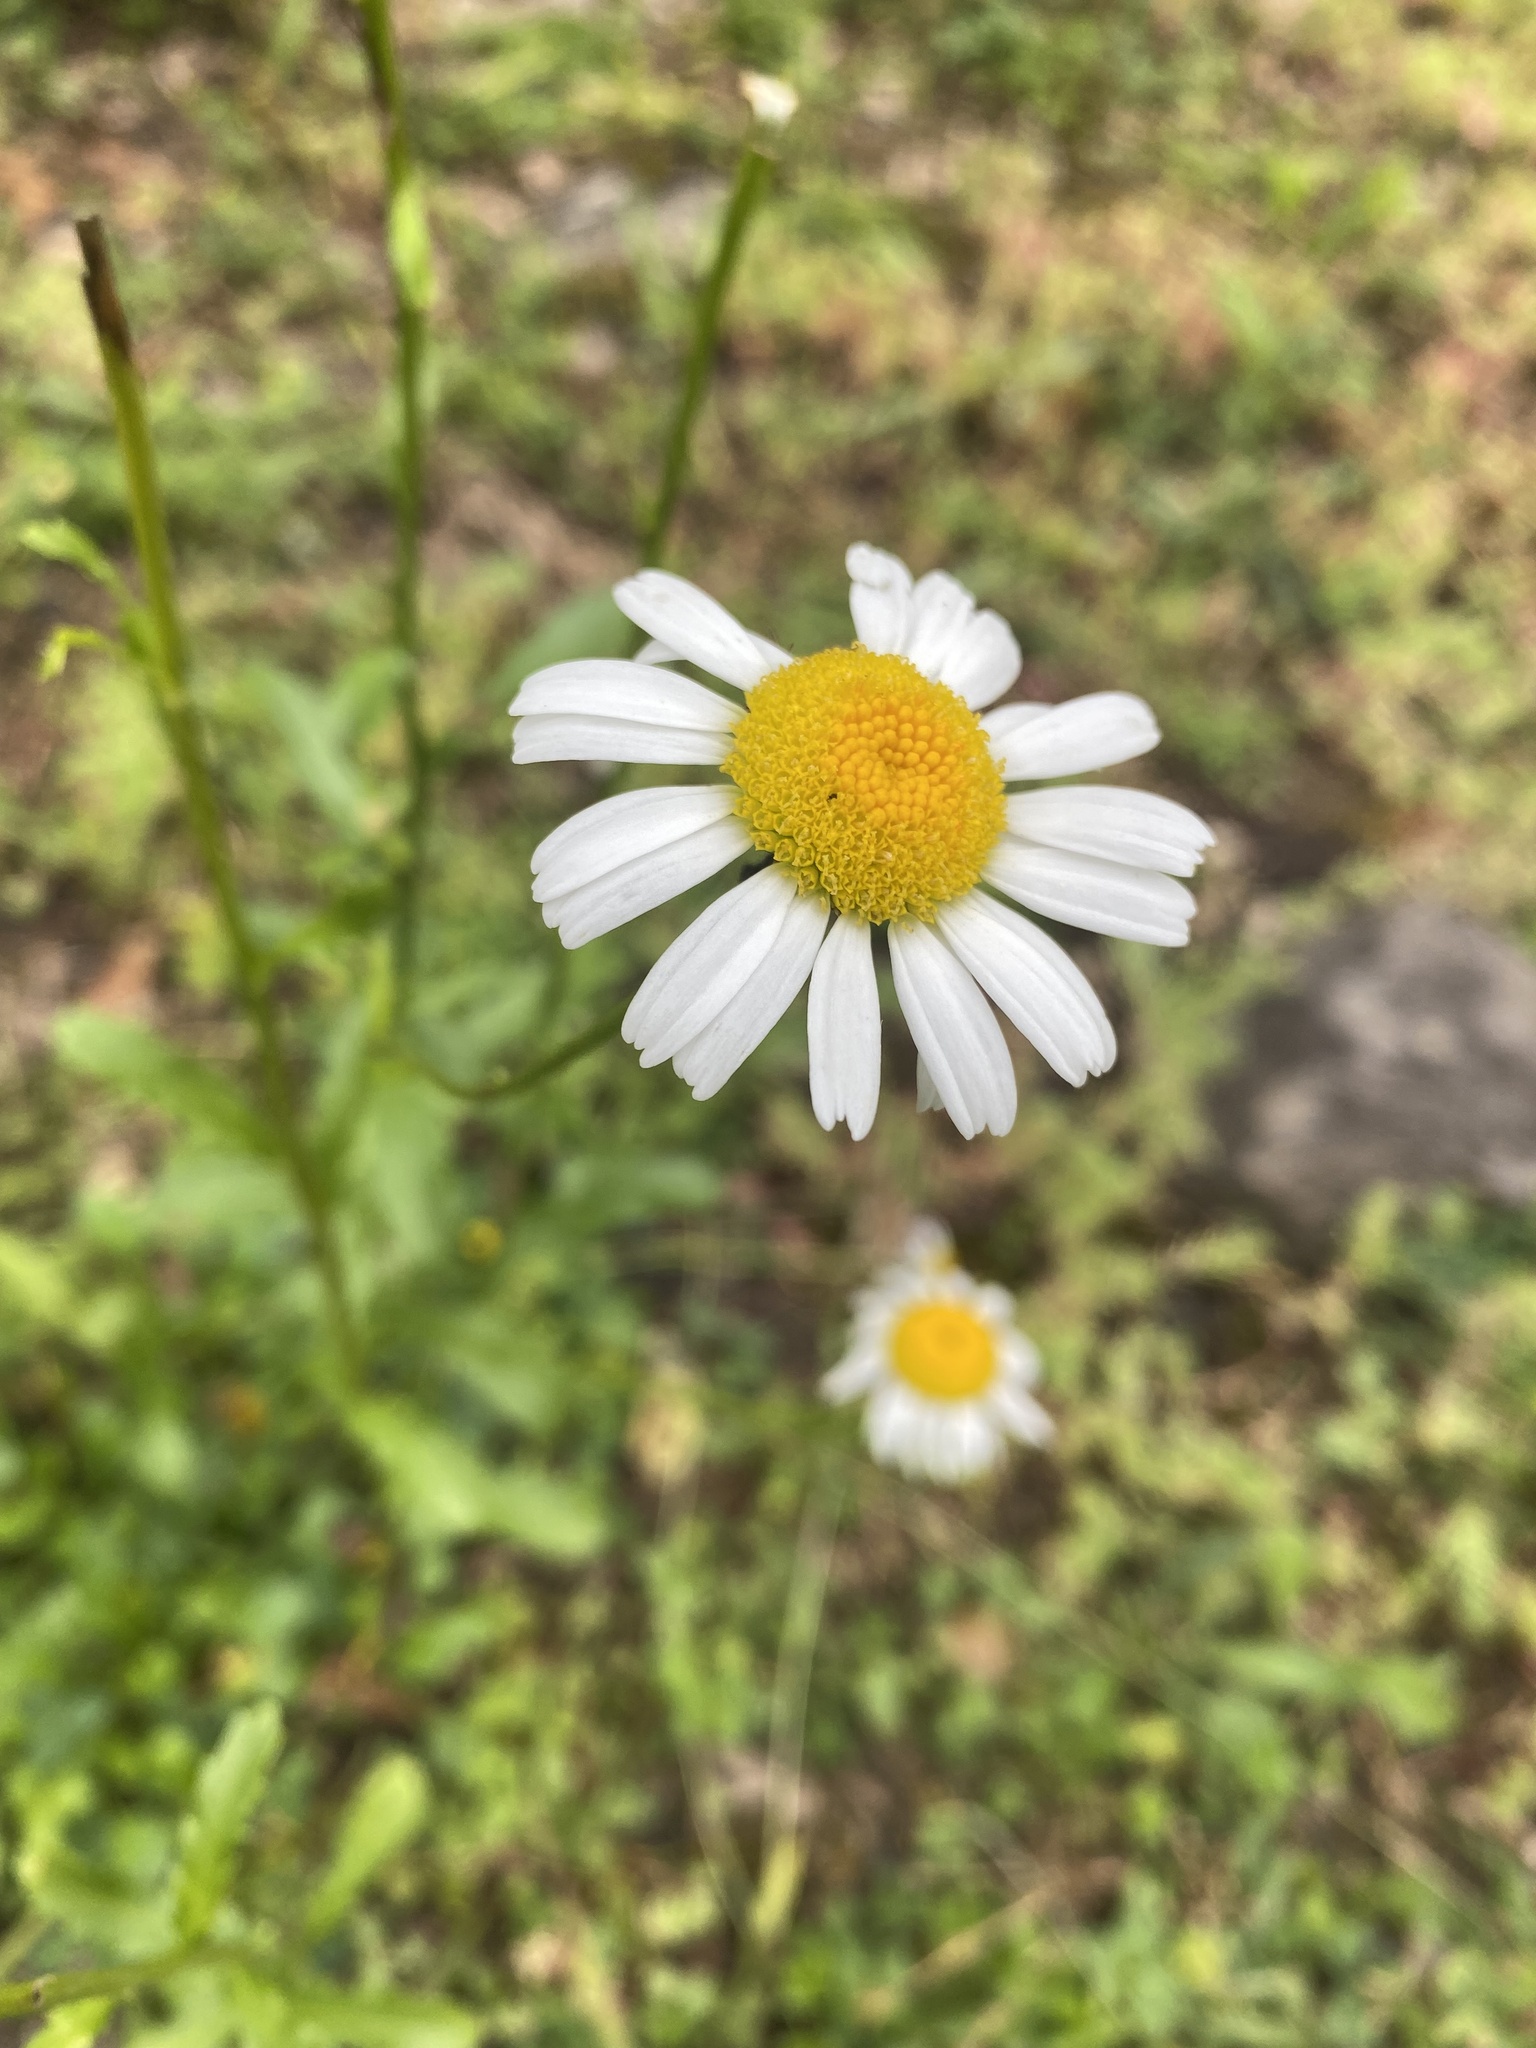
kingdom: Plantae
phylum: Tracheophyta
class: Magnoliopsida
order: Asterales
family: Asteraceae
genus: Leucanthemum
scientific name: Leucanthemum vulgare
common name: Oxeye daisy
